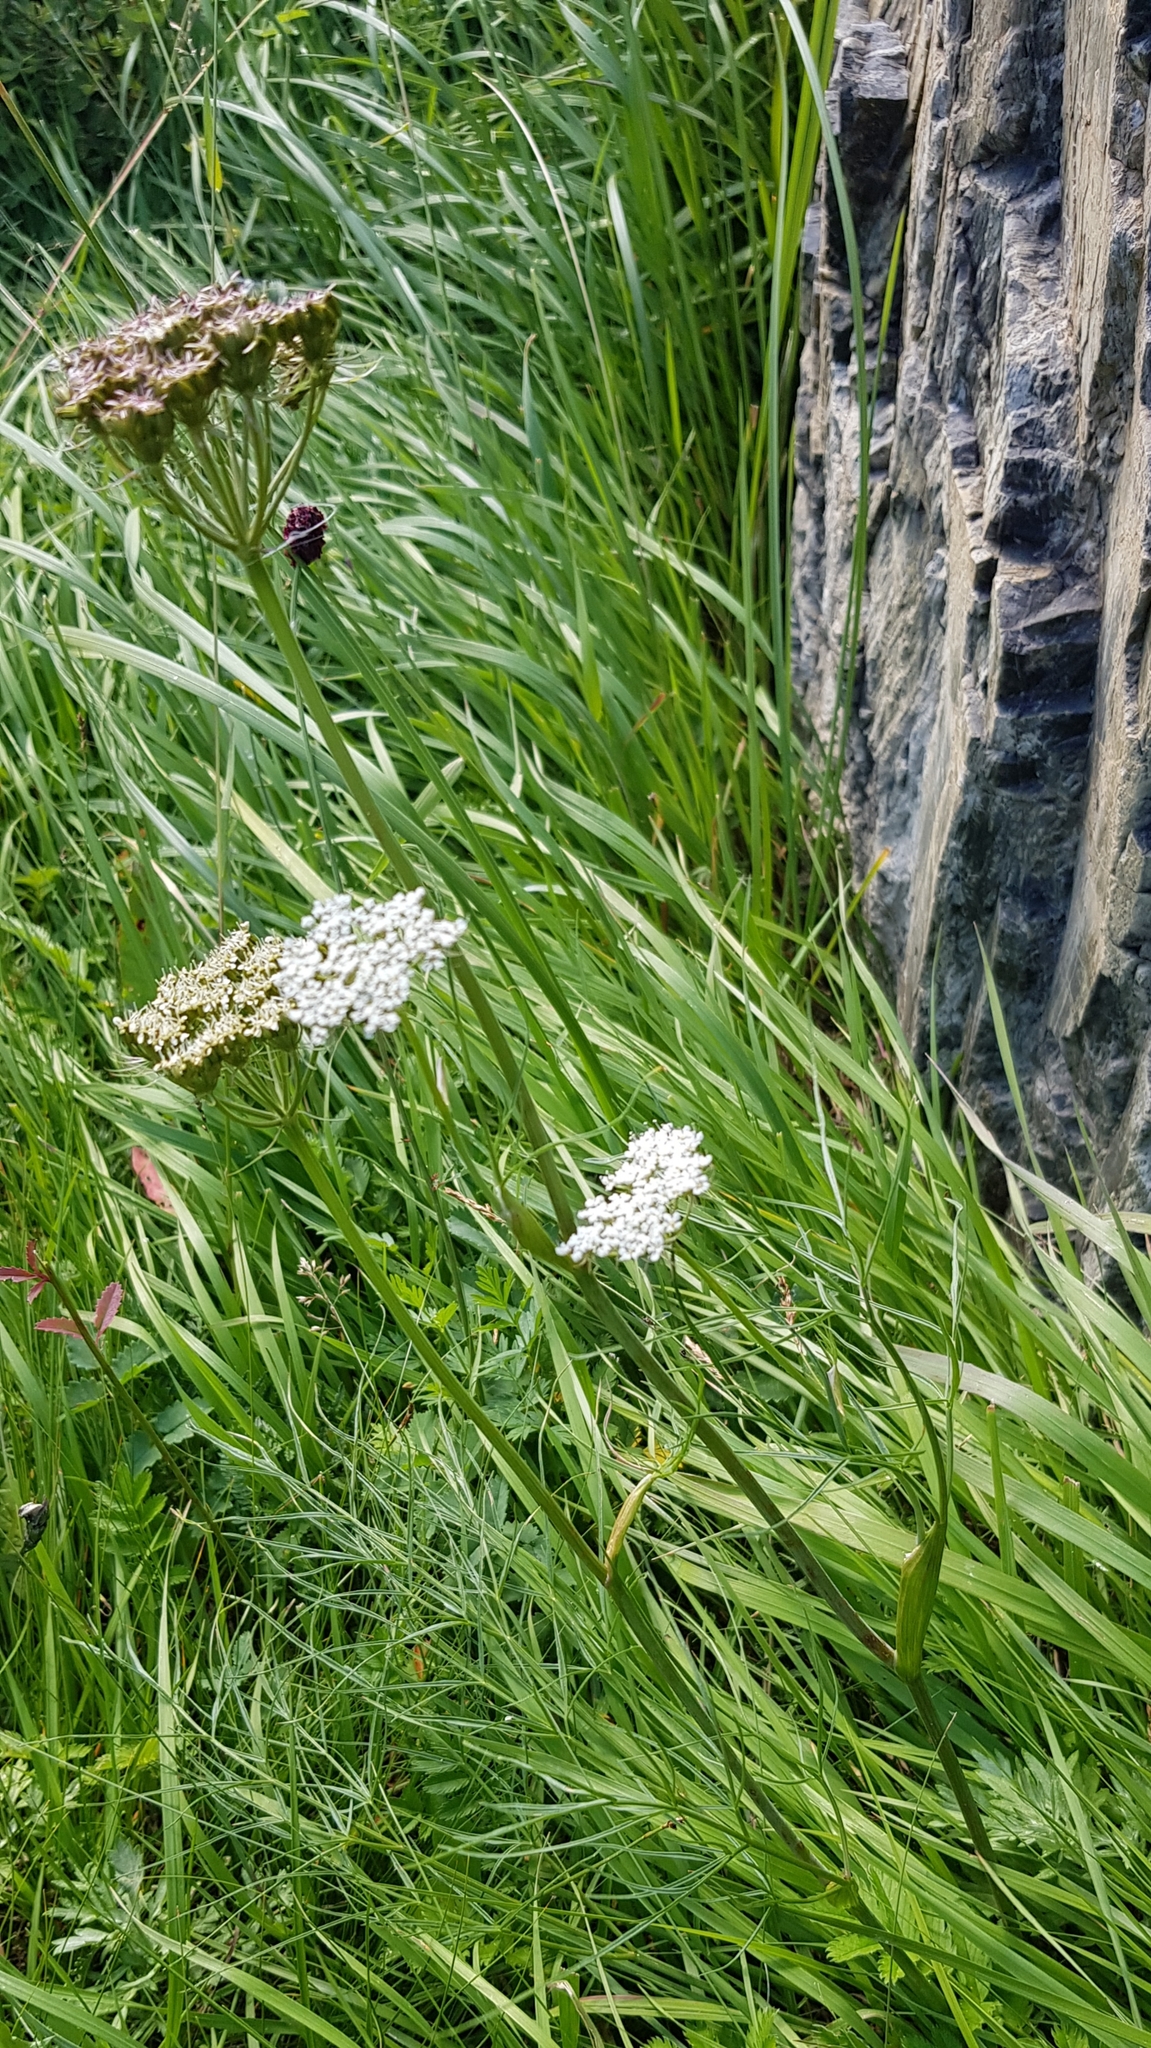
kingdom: Plantae
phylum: Tracheophyta
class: Magnoliopsida
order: Apiales
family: Apiaceae
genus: Conioselinum
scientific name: Conioselinum longifolium
